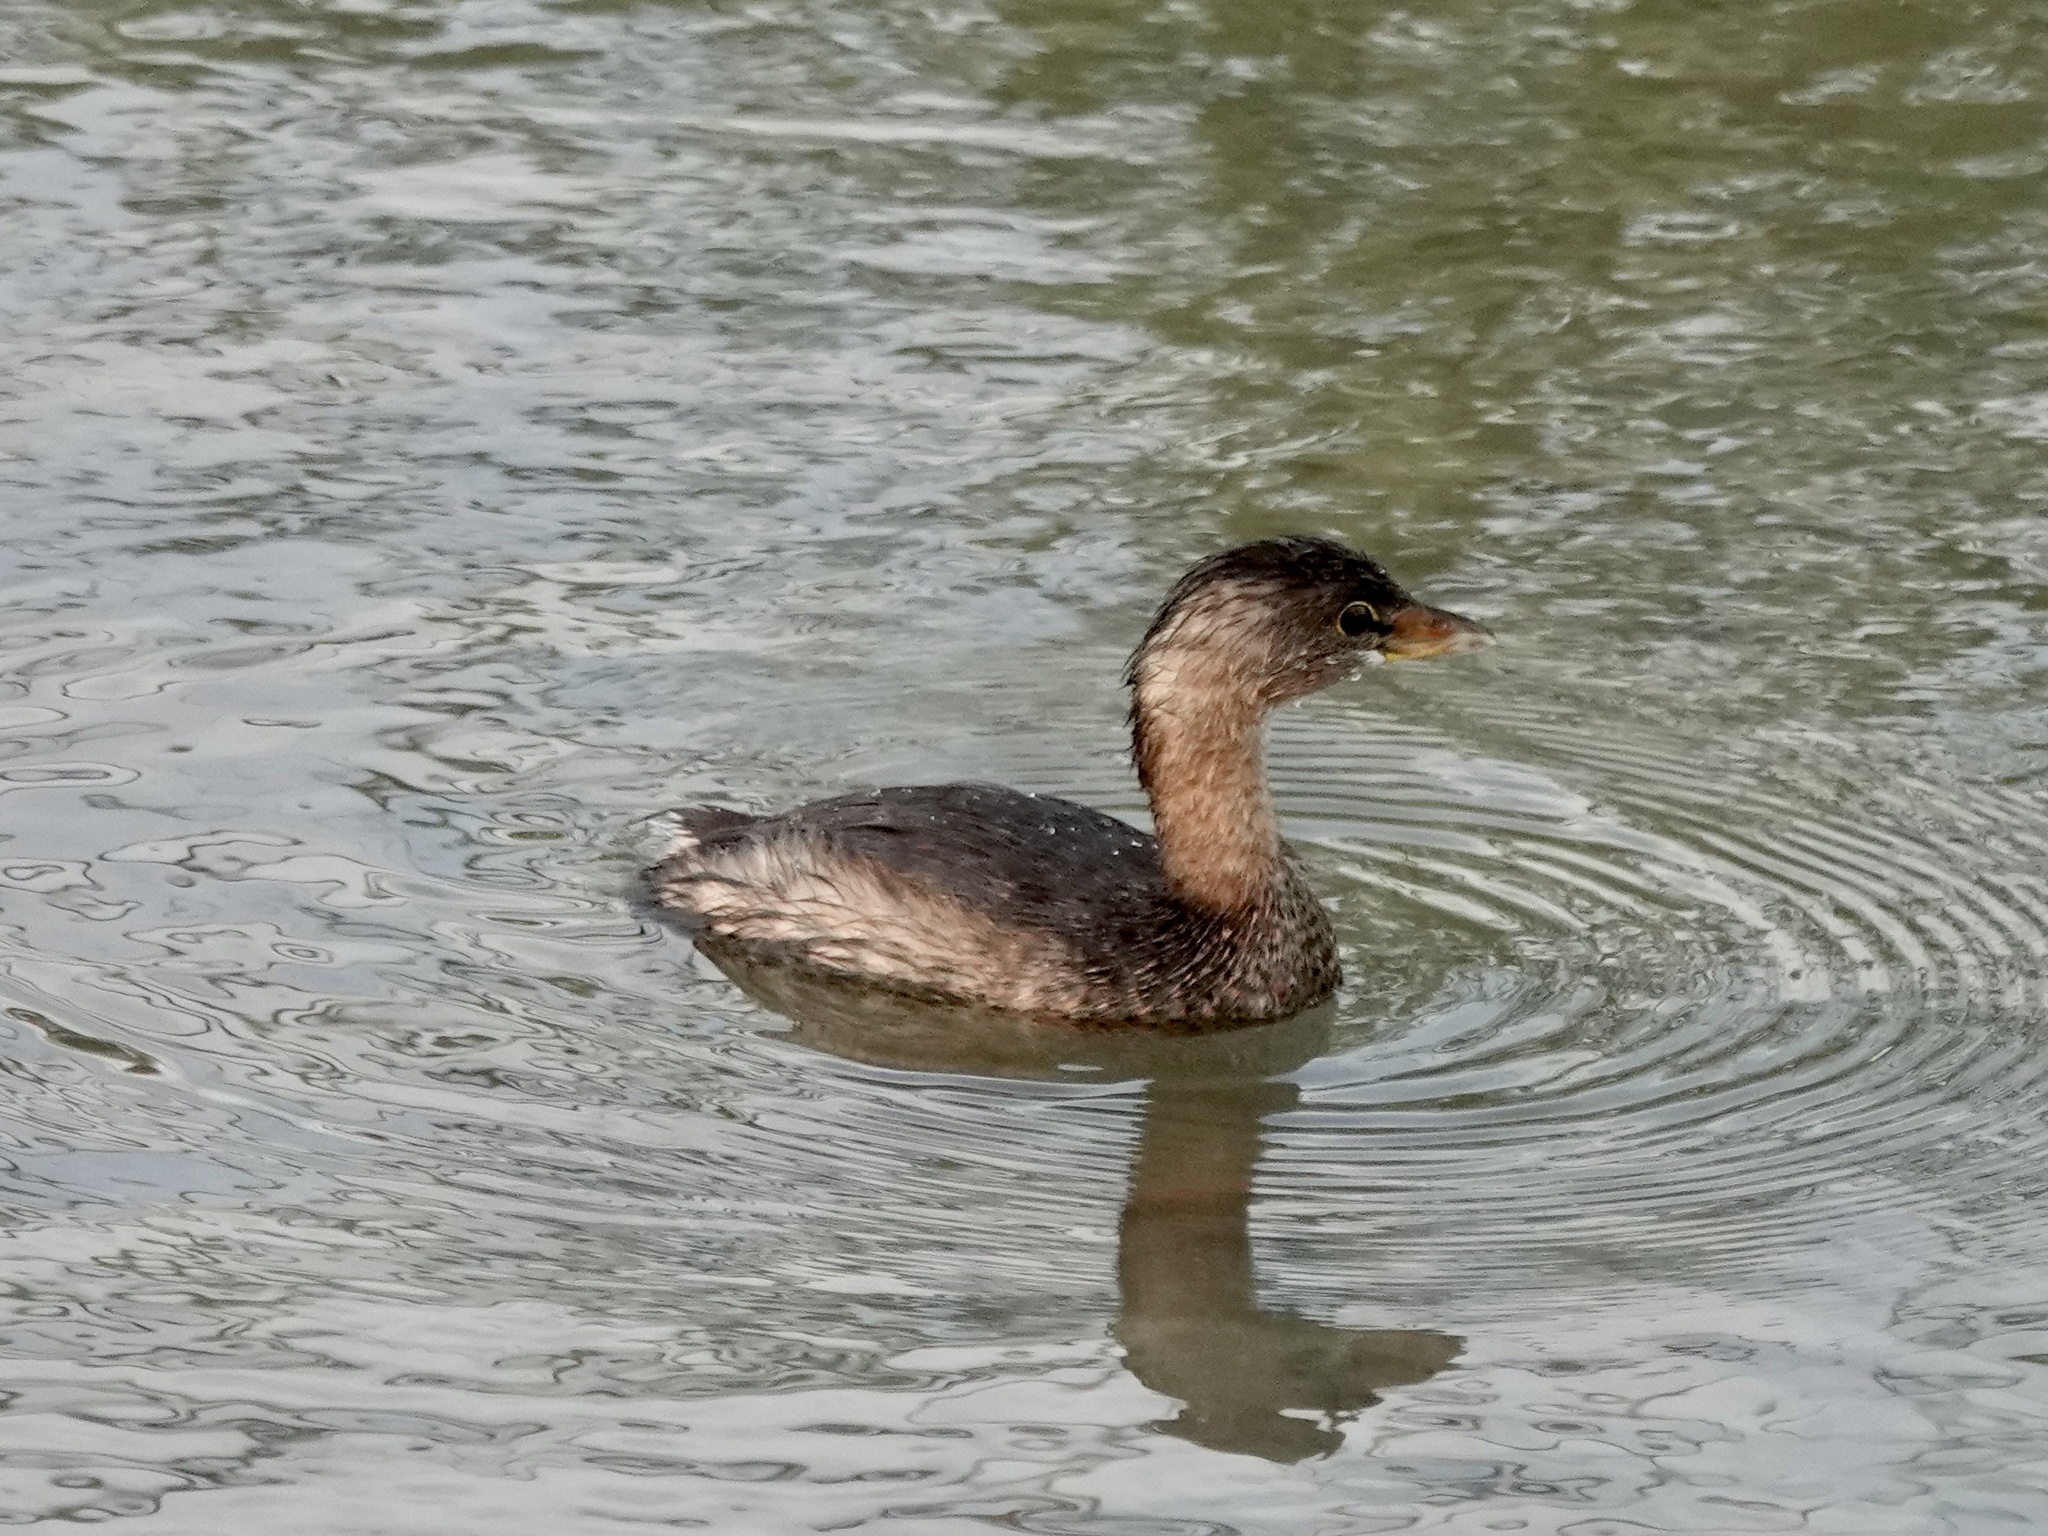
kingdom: Animalia
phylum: Chordata
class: Aves
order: Podicipediformes
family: Podicipedidae
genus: Podilymbus
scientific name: Podilymbus podiceps
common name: Pied-billed grebe
